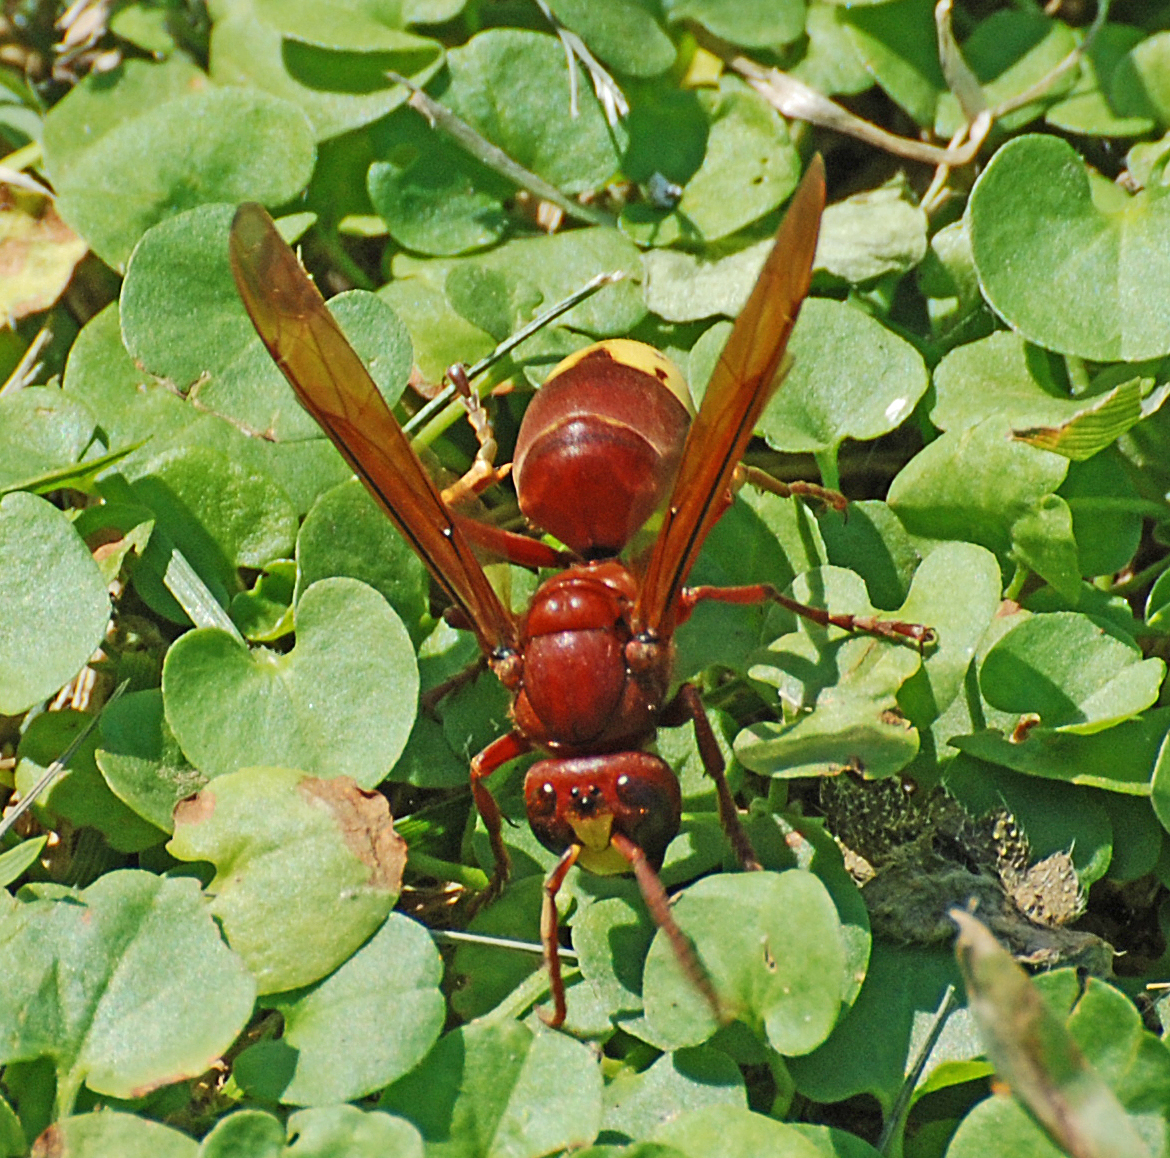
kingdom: Animalia
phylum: Arthropoda
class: Insecta
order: Hymenoptera
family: Vespidae
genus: Vespa
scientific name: Vespa orientalis
